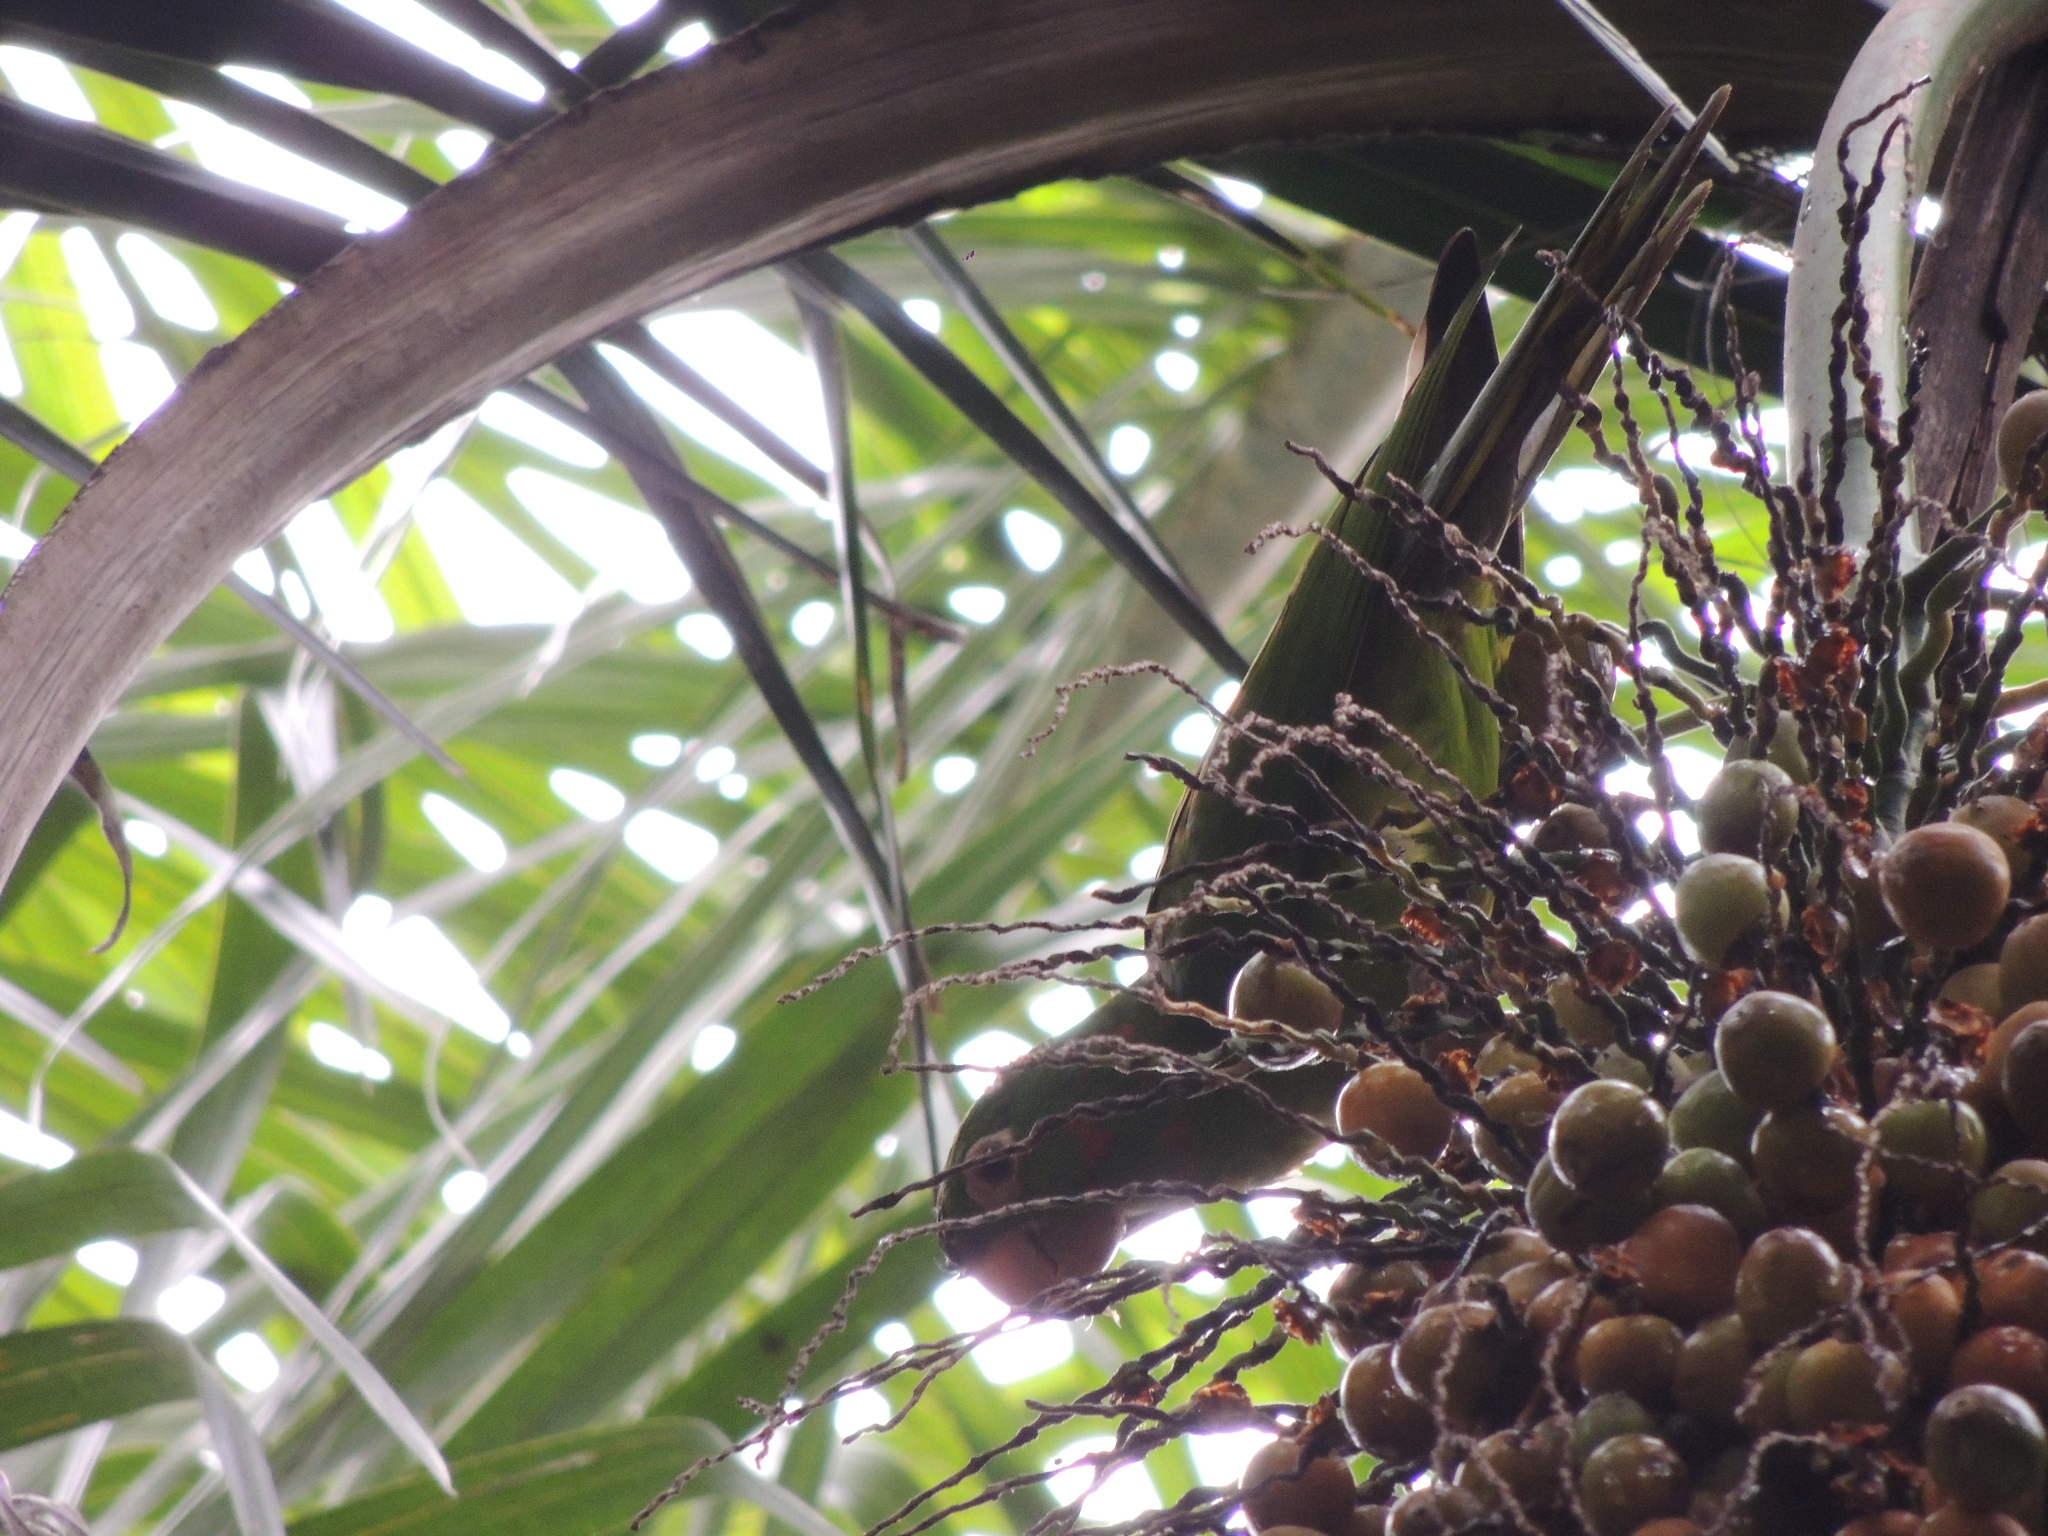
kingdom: Animalia
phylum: Chordata
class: Aves
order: Psittaciformes
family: Psittacidae
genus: Aratinga
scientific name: Aratinga leucophthalma
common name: White-eyed parakeet
